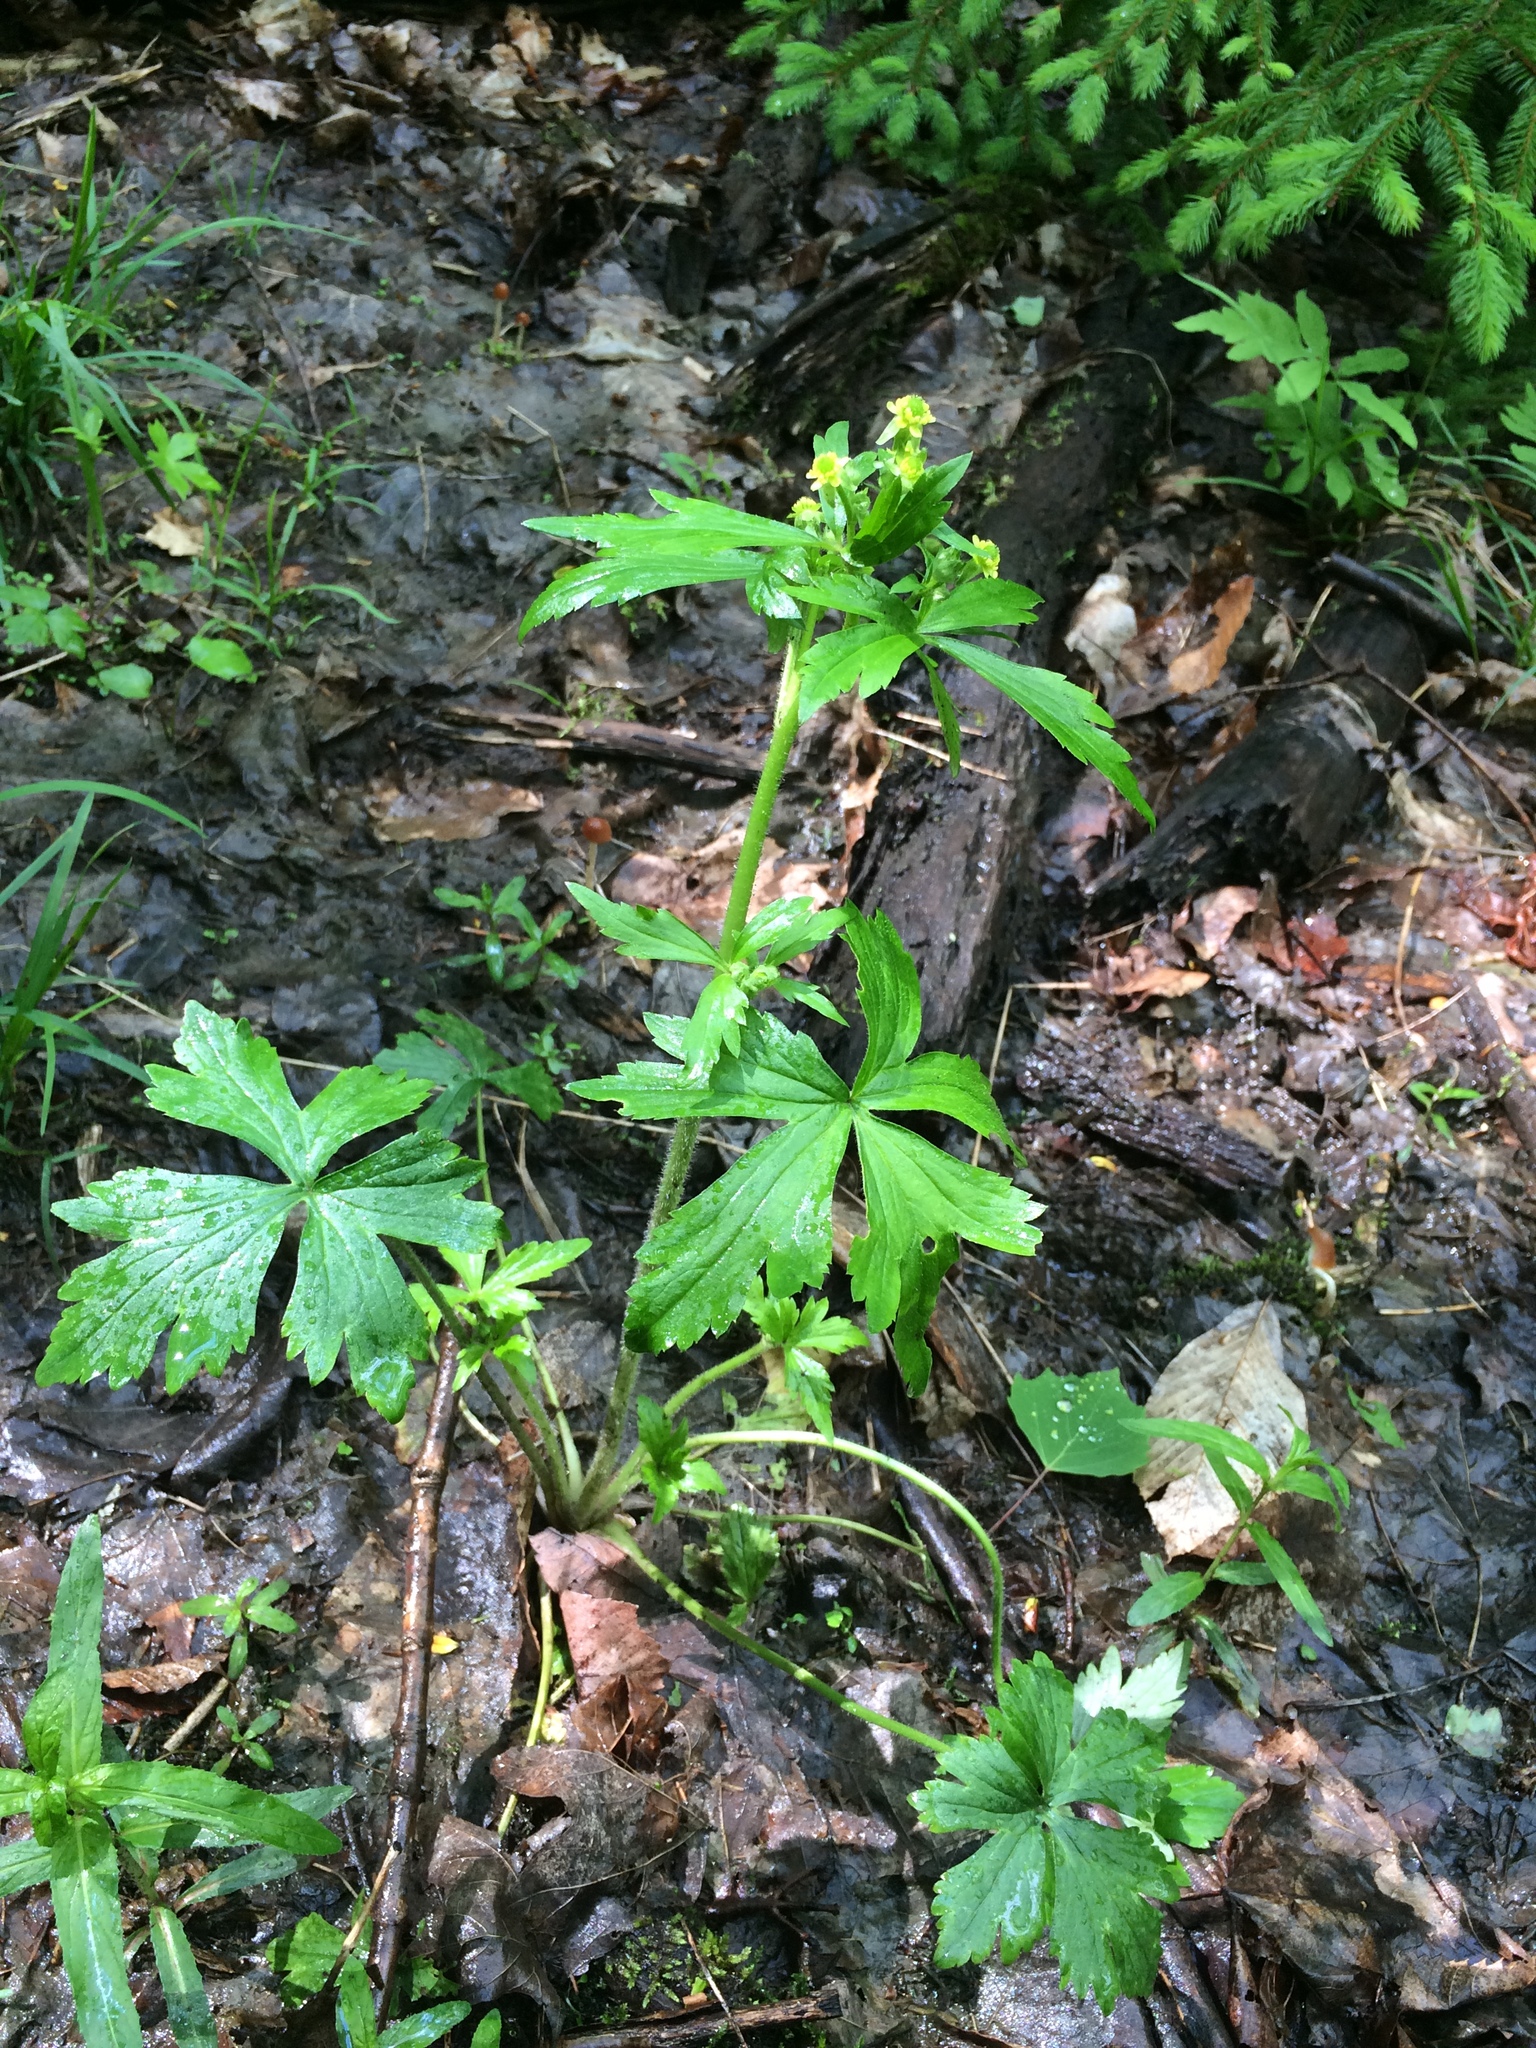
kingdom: Plantae
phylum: Tracheophyta
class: Magnoliopsida
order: Ranunculales
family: Ranunculaceae
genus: Ranunculus
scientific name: Ranunculus recurvatus
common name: Blisterwort
